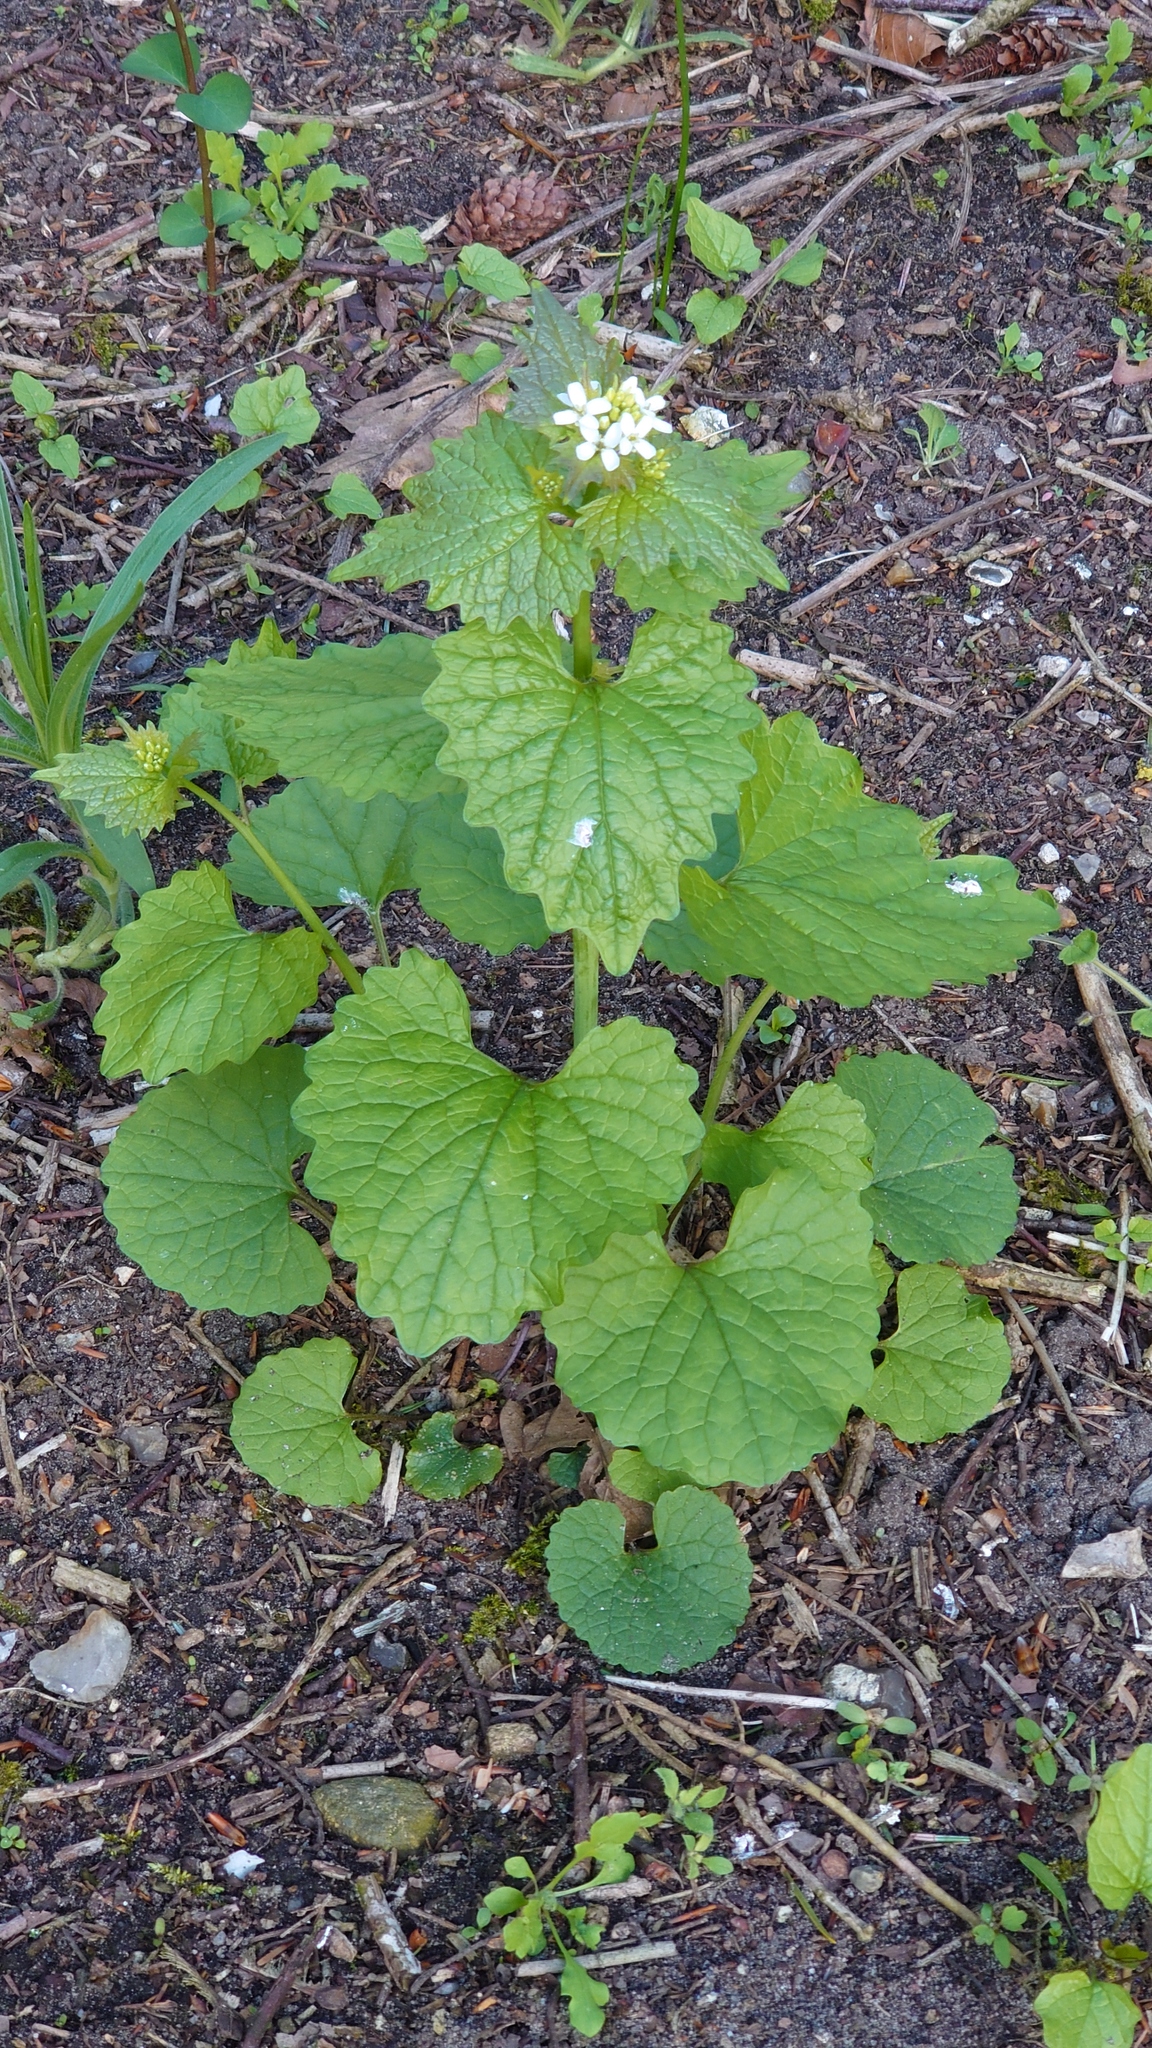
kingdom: Plantae
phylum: Tracheophyta
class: Magnoliopsida
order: Brassicales
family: Brassicaceae
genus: Alliaria
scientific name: Alliaria petiolata
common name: Garlic mustard
